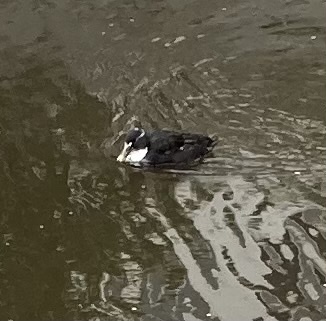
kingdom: Animalia
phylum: Chordata
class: Aves
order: Anseriformes
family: Anatidae
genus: Anas
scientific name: Anas platyrhynchos
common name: Mallard
